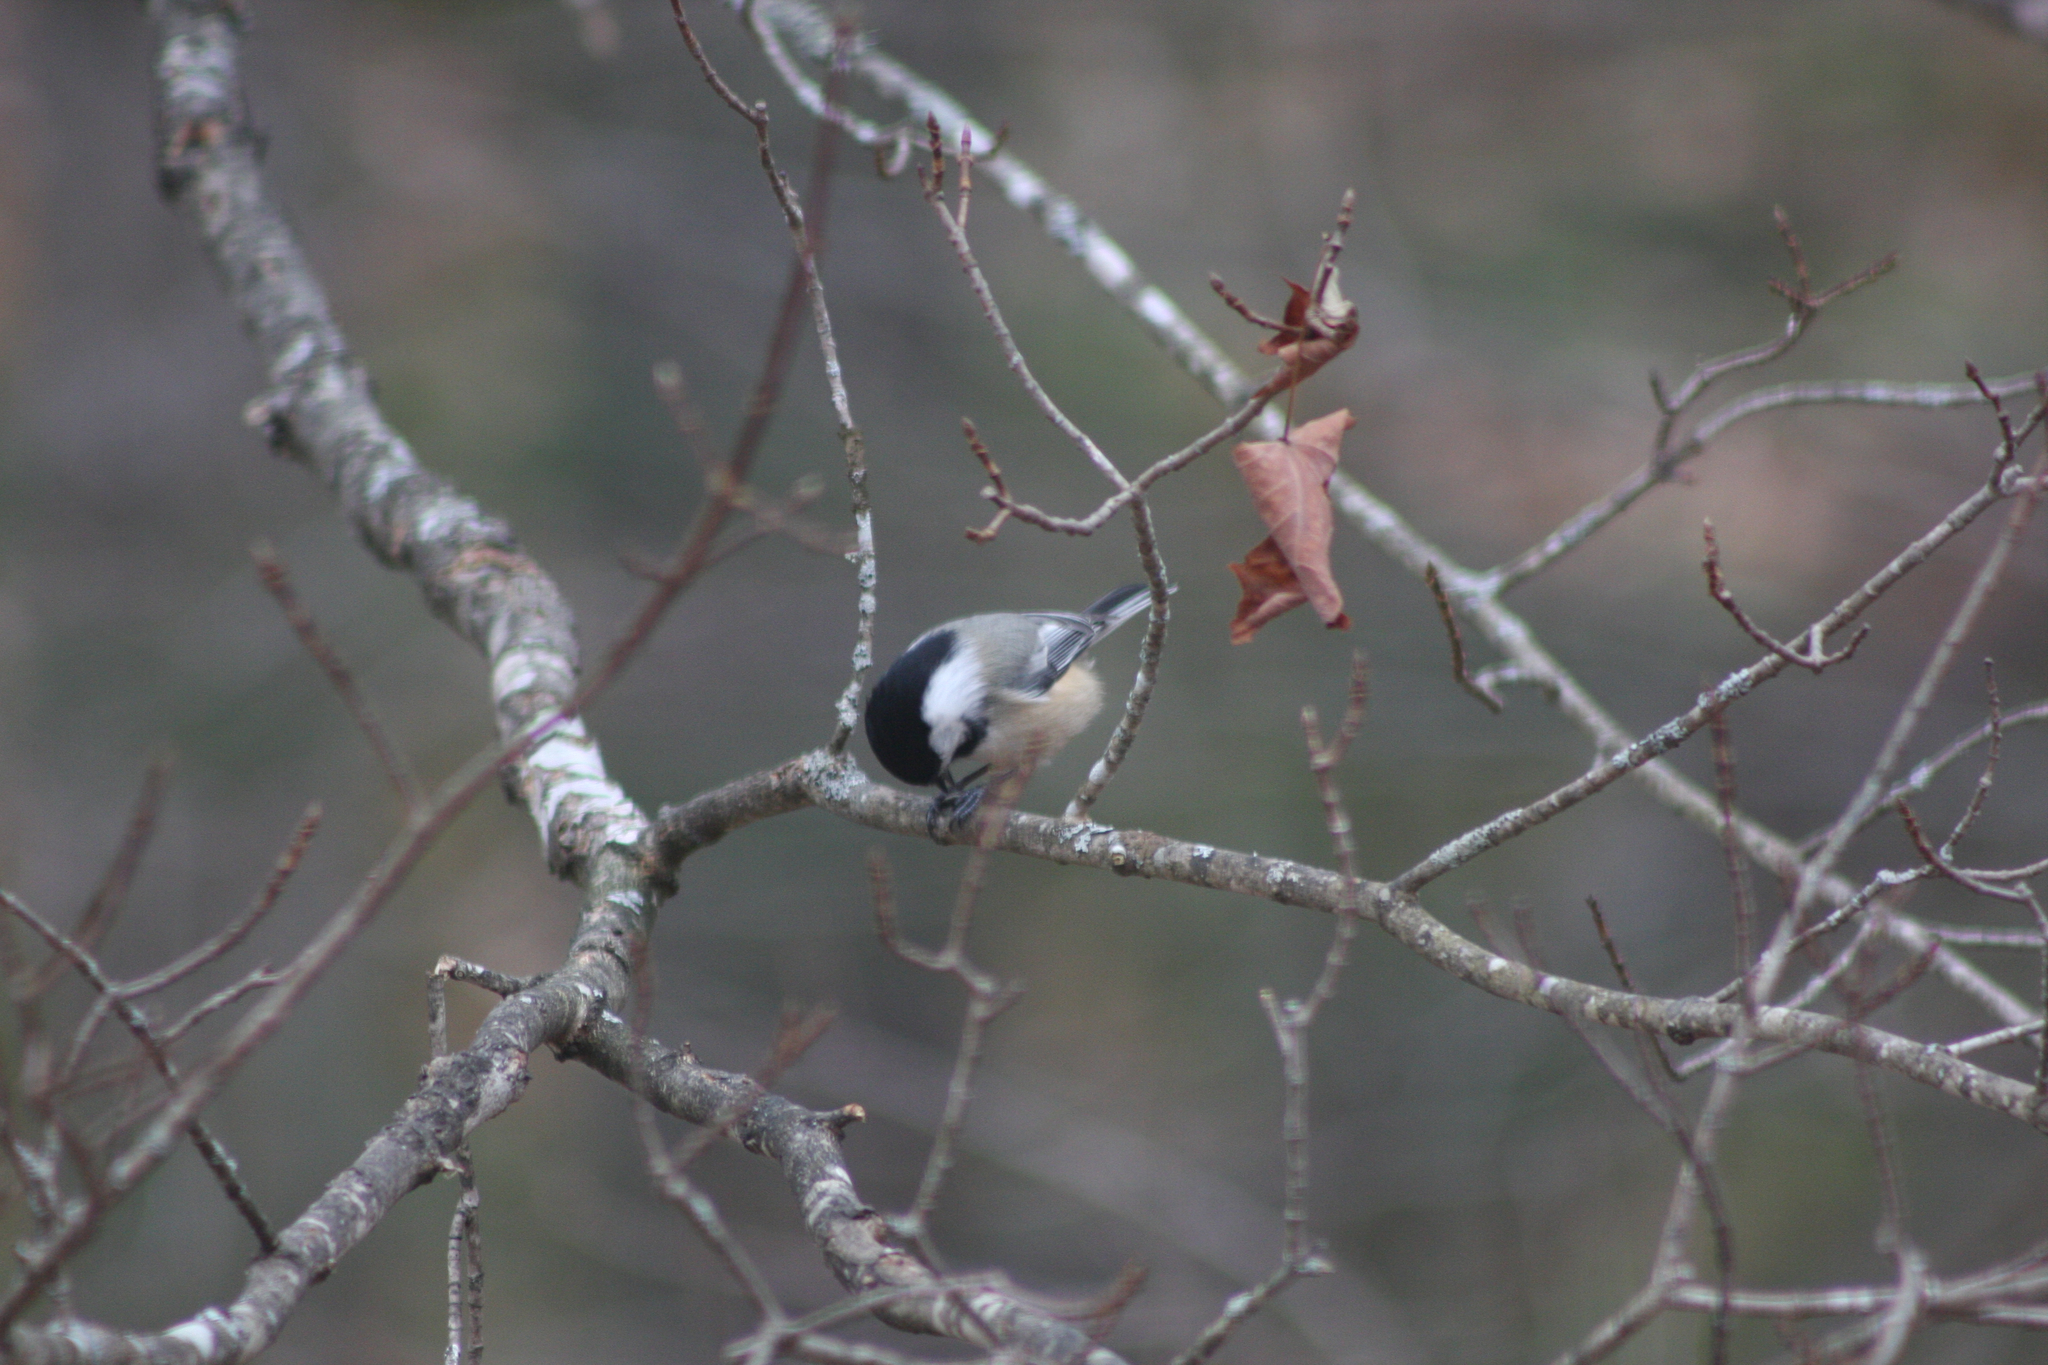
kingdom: Animalia
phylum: Chordata
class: Aves
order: Passeriformes
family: Paridae
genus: Poecile
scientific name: Poecile atricapillus
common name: Black-capped chickadee
